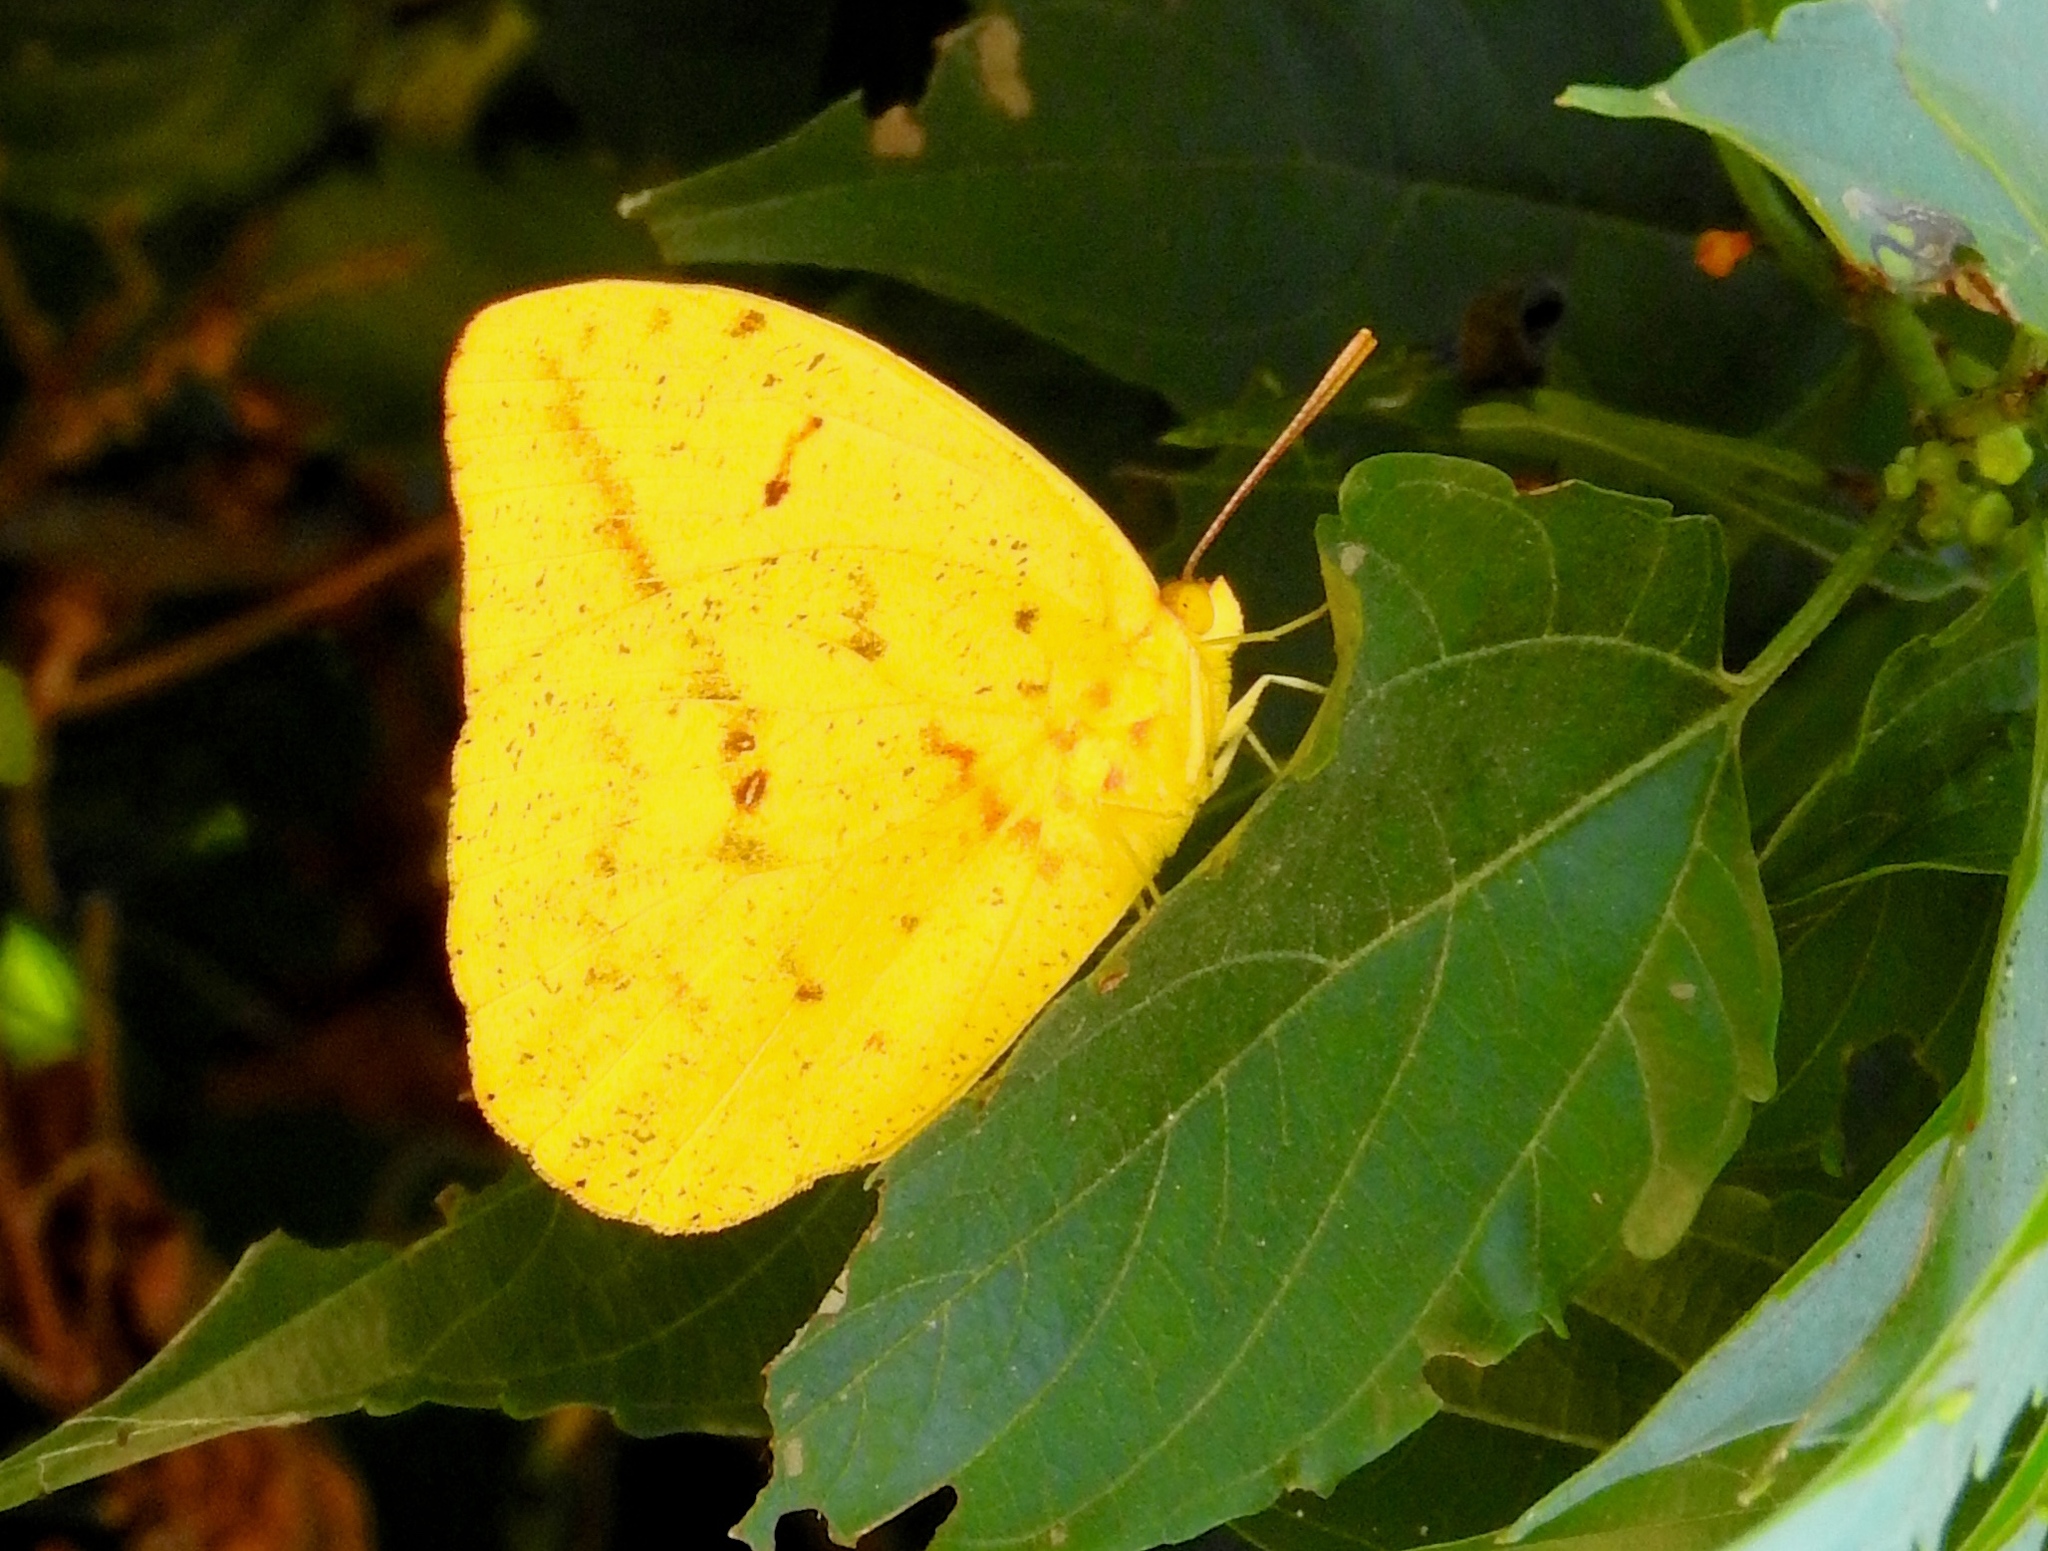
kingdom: Animalia
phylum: Arthropoda
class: Insecta
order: Lepidoptera
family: Pieridae
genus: Phoebis
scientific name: Phoebis agarithe
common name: Large orange sulphur
